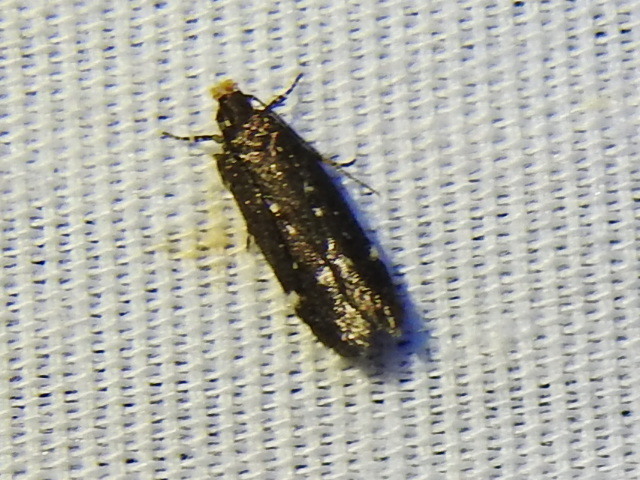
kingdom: Animalia
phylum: Arthropoda
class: Insecta
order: Lepidoptera
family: Gelechiidae
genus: Aroga
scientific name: Aroga epigaeella
